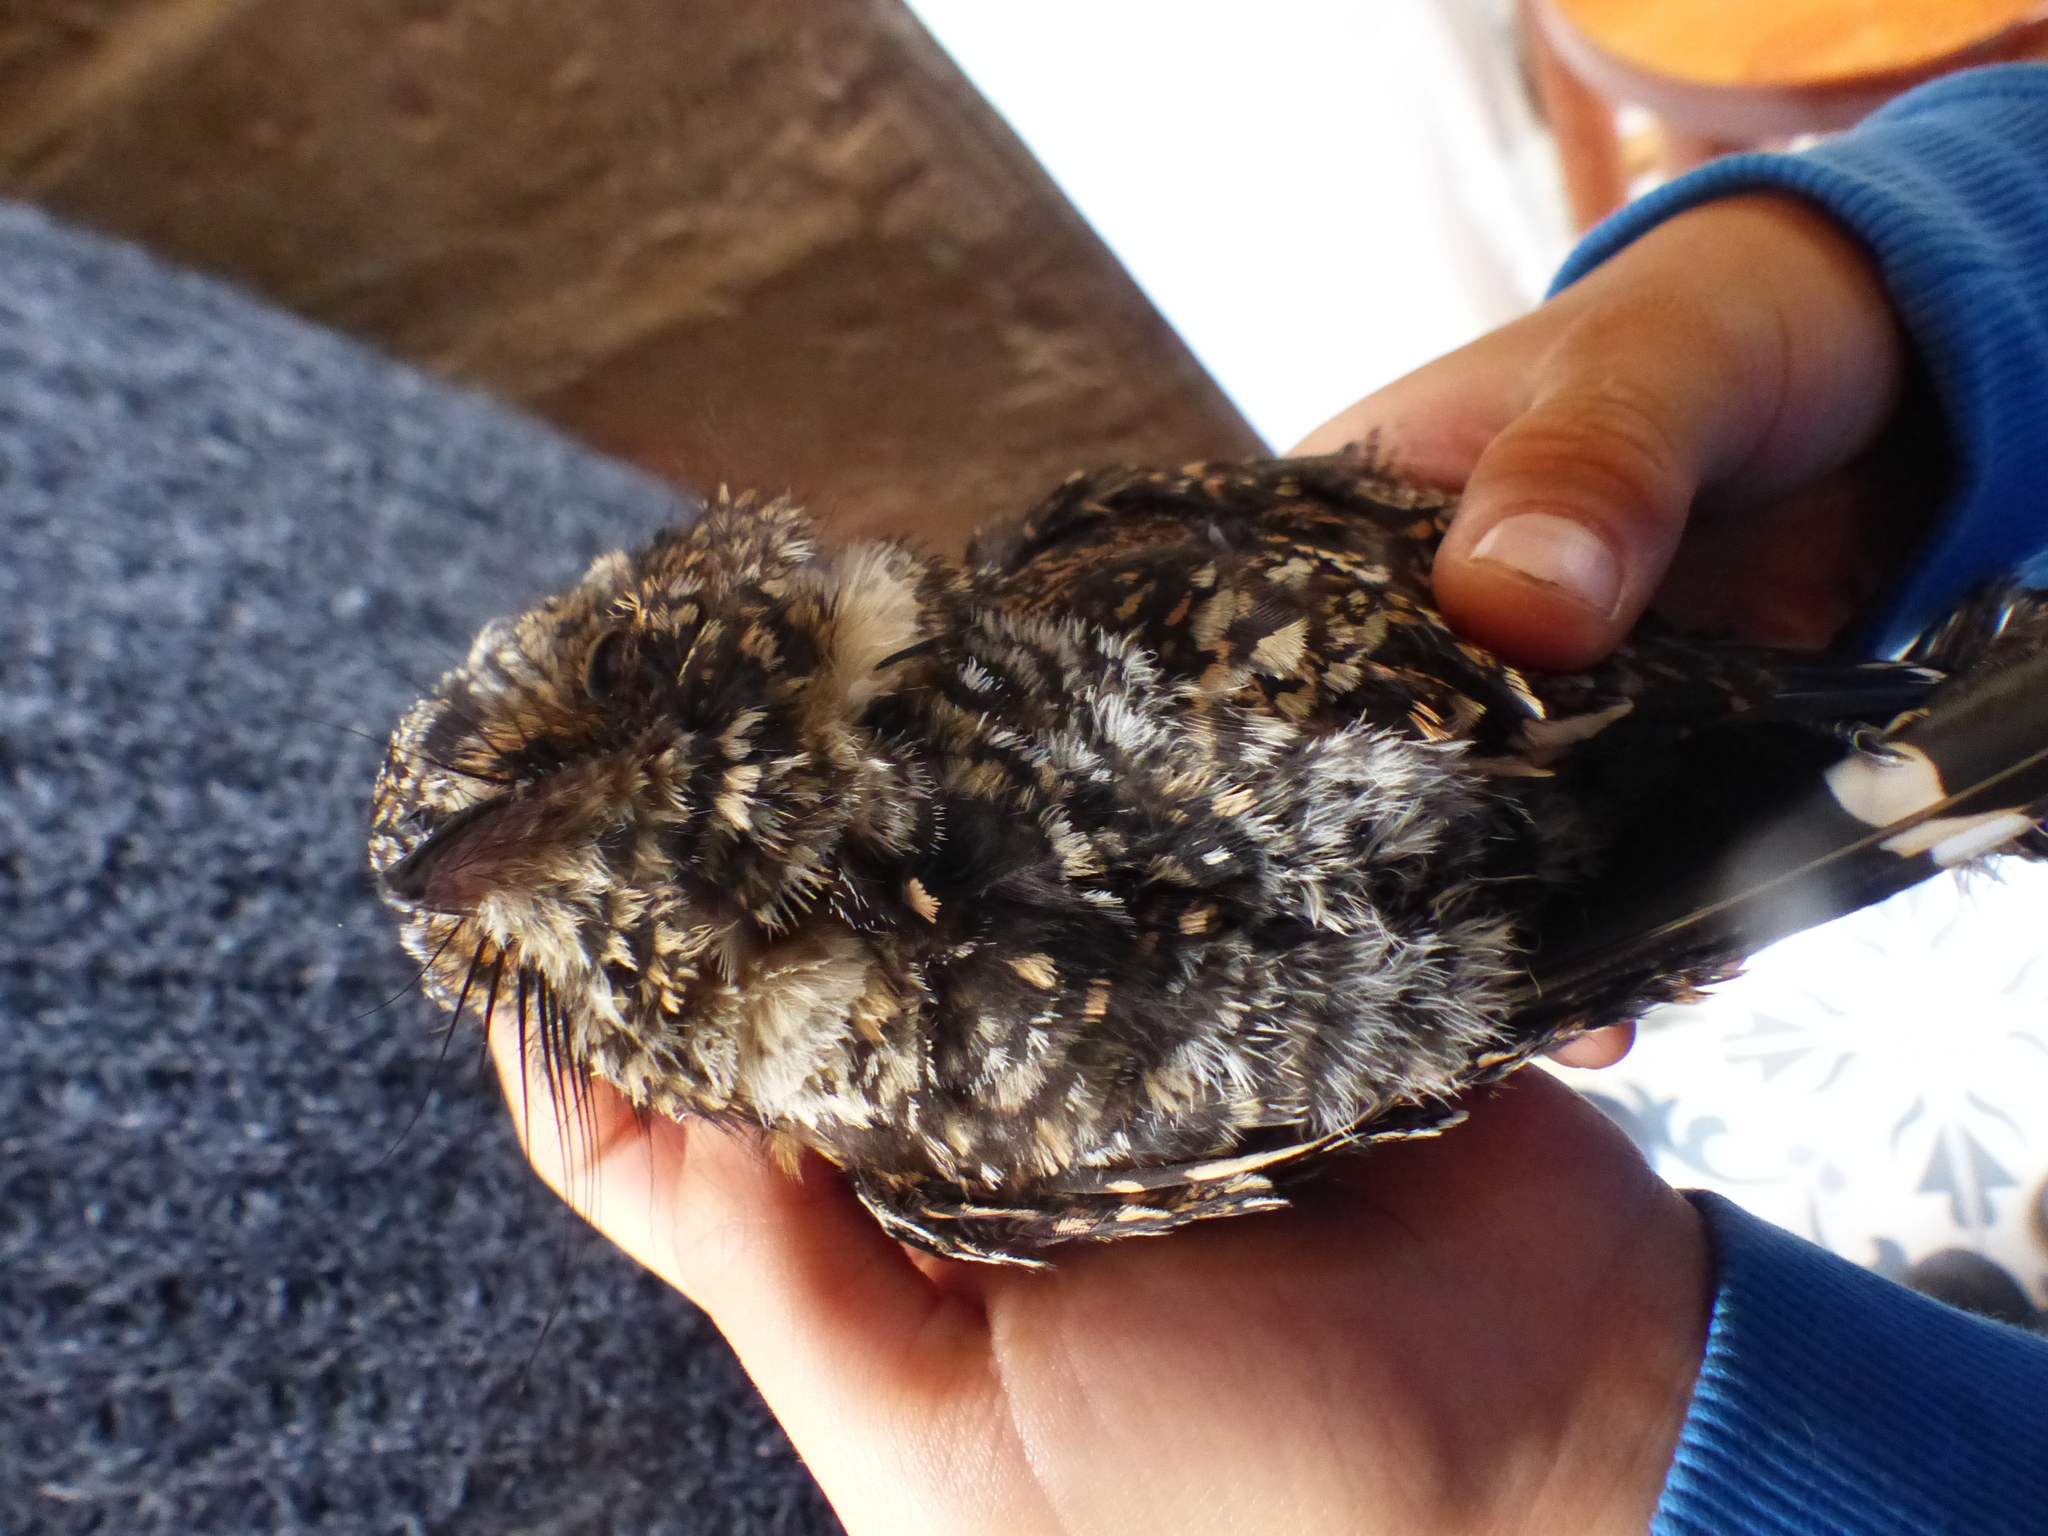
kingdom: Animalia
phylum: Chordata
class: Aves
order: Caprimulgiformes
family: Caprimulgidae
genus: Systellura
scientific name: Systellura longirostris
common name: Band-winged nightjar
